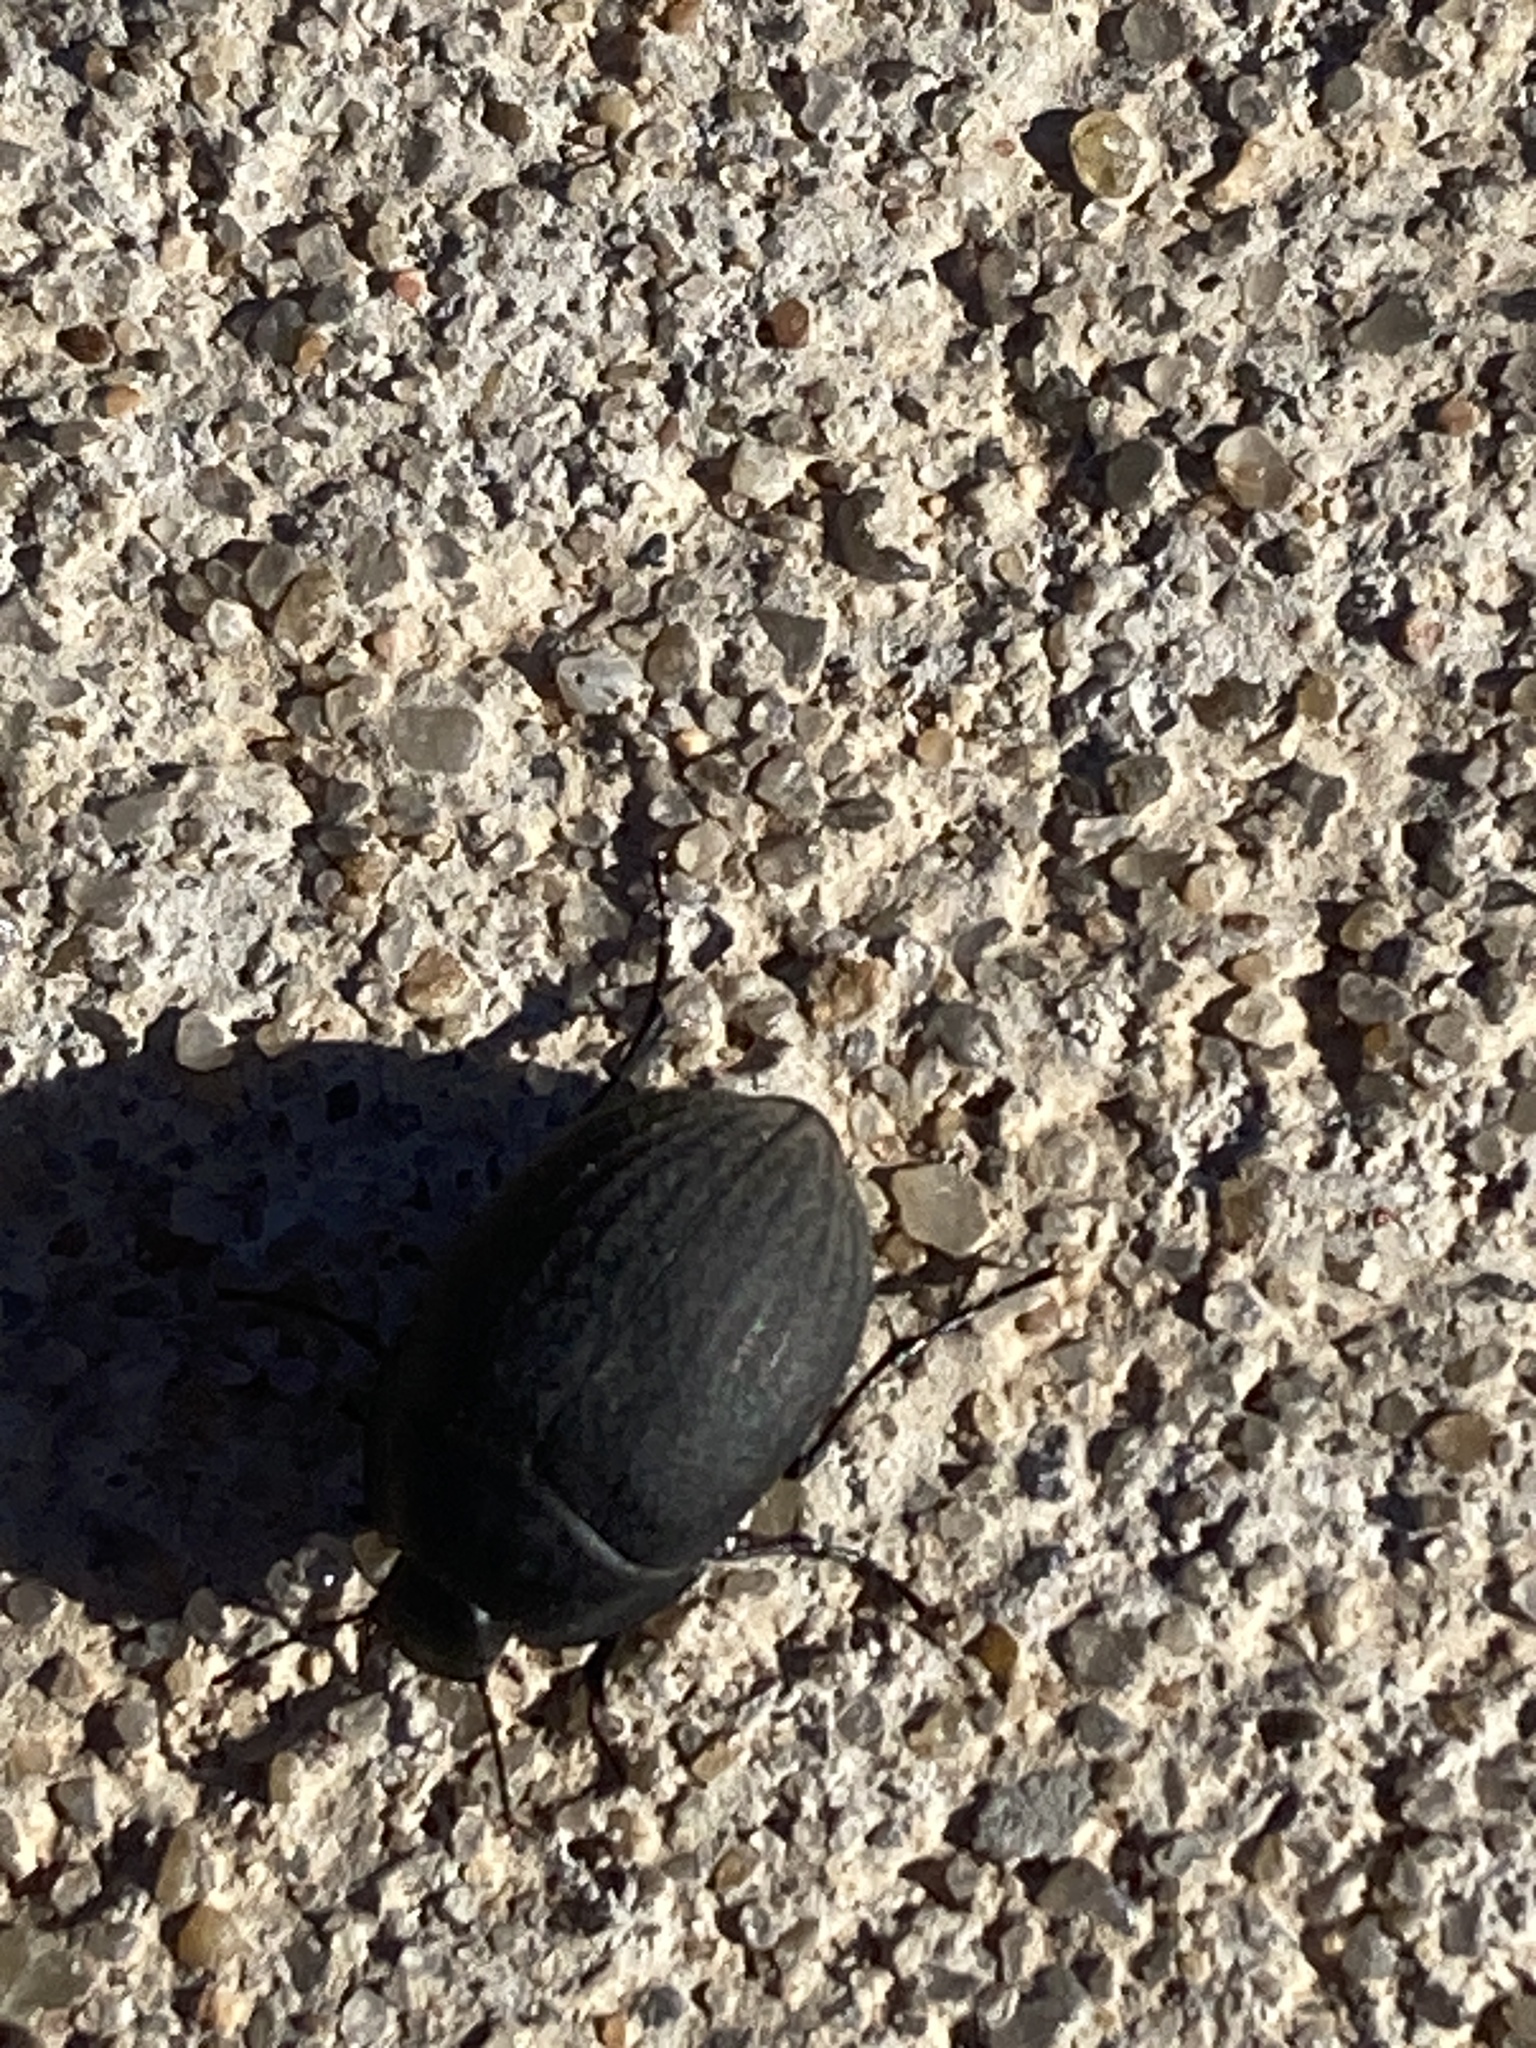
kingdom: Animalia
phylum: Arthropoda
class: Insecta
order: Coleoptera
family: Tenebrionidae
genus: Eusattus
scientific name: Eusattus reticulatus
